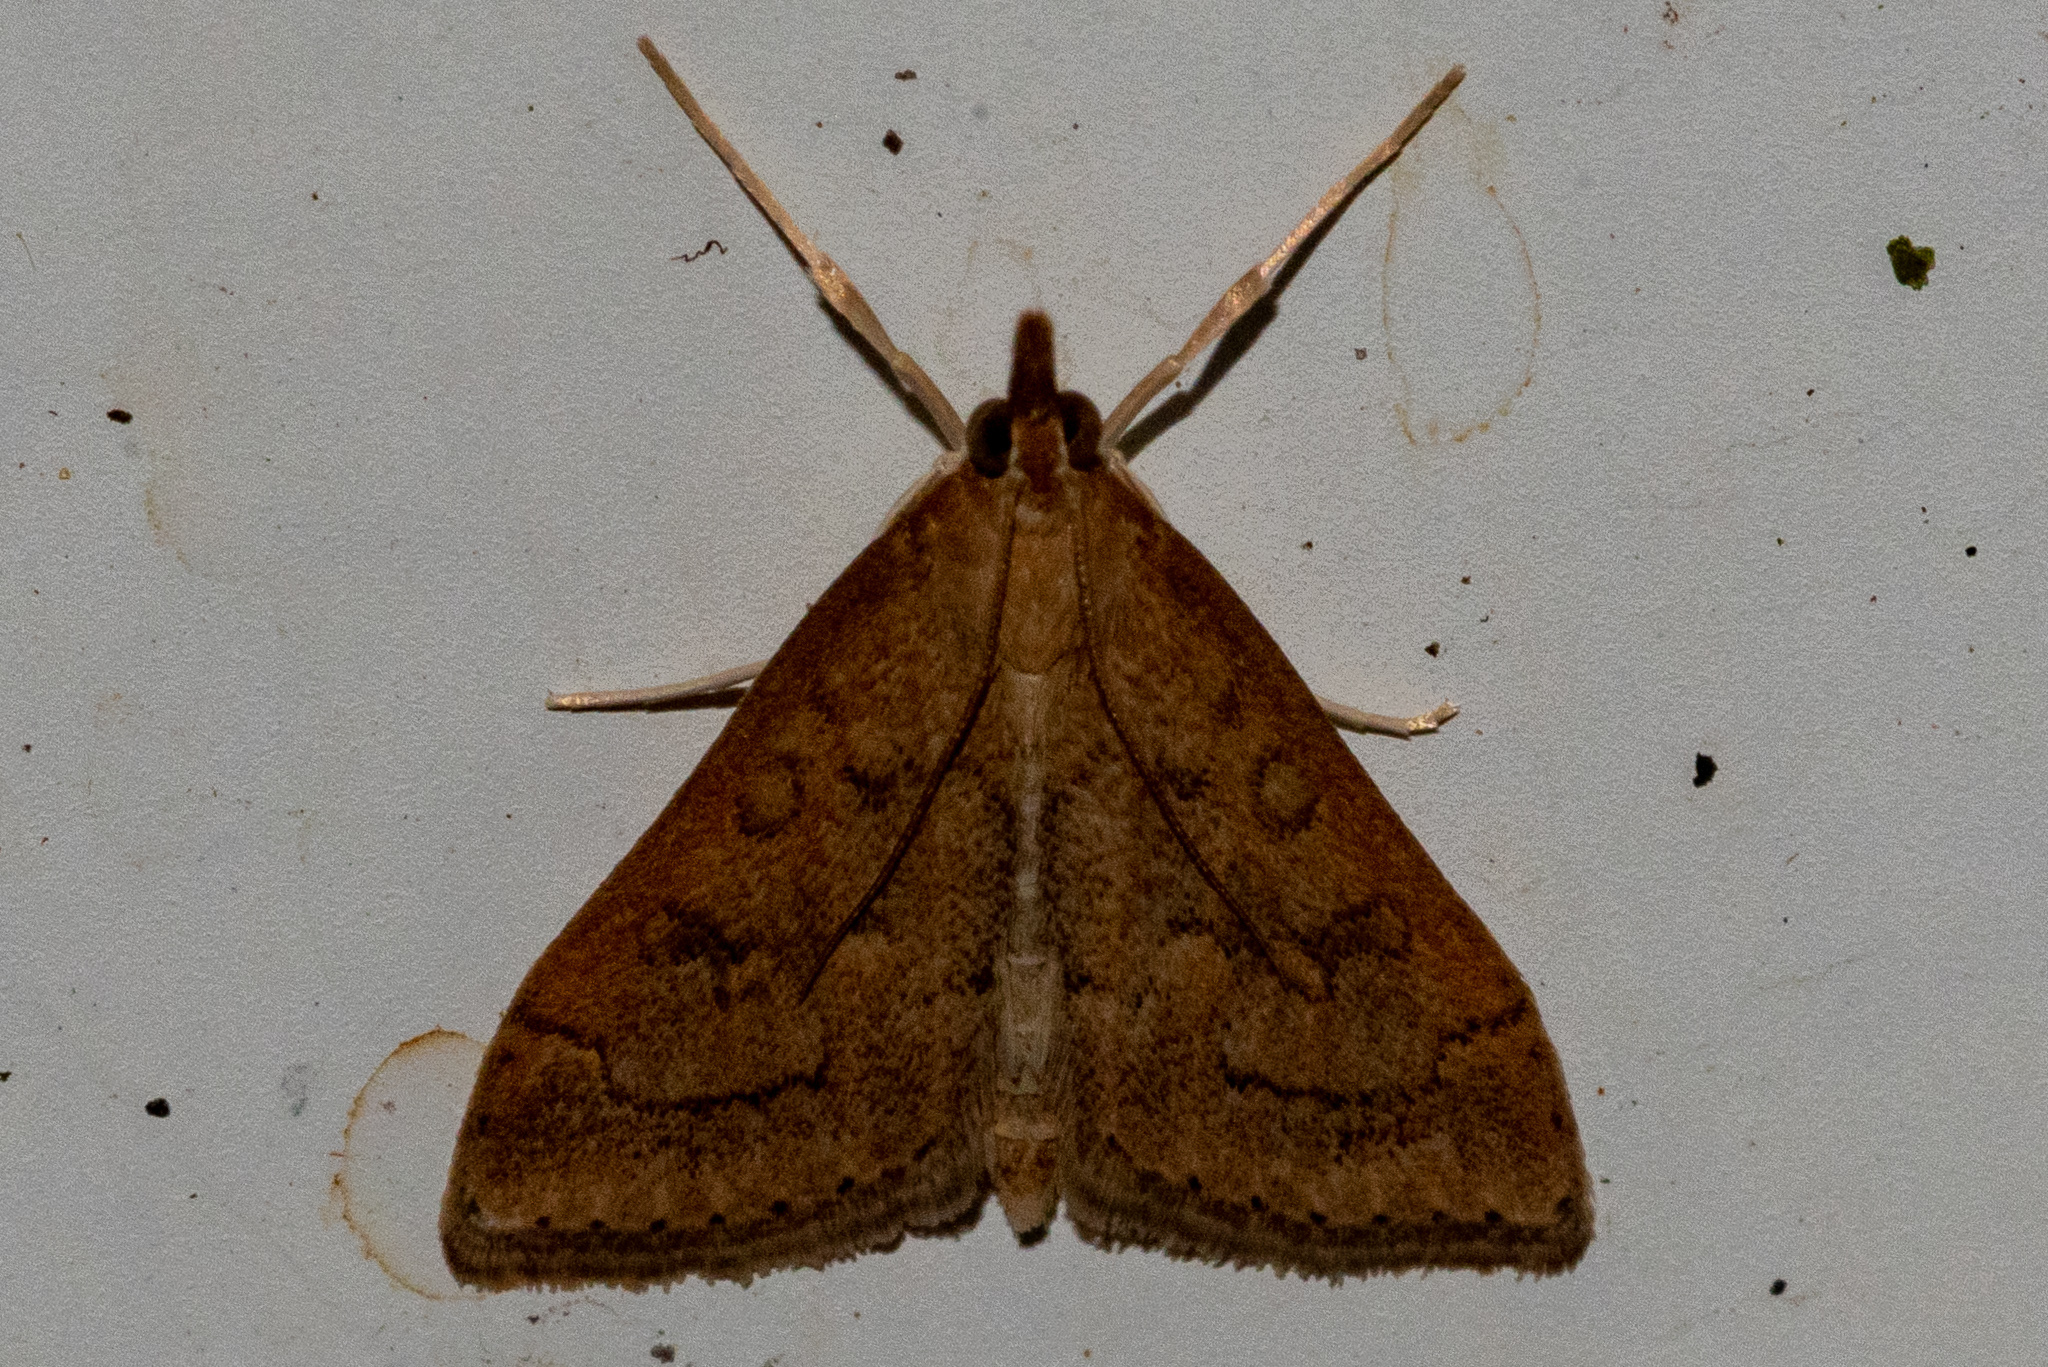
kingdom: Animalia
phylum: Arthropoda
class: Insecta
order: Lepidoptera
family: Crambidae
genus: Udea
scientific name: Udea rubigalis
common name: Celery leaftier moth
